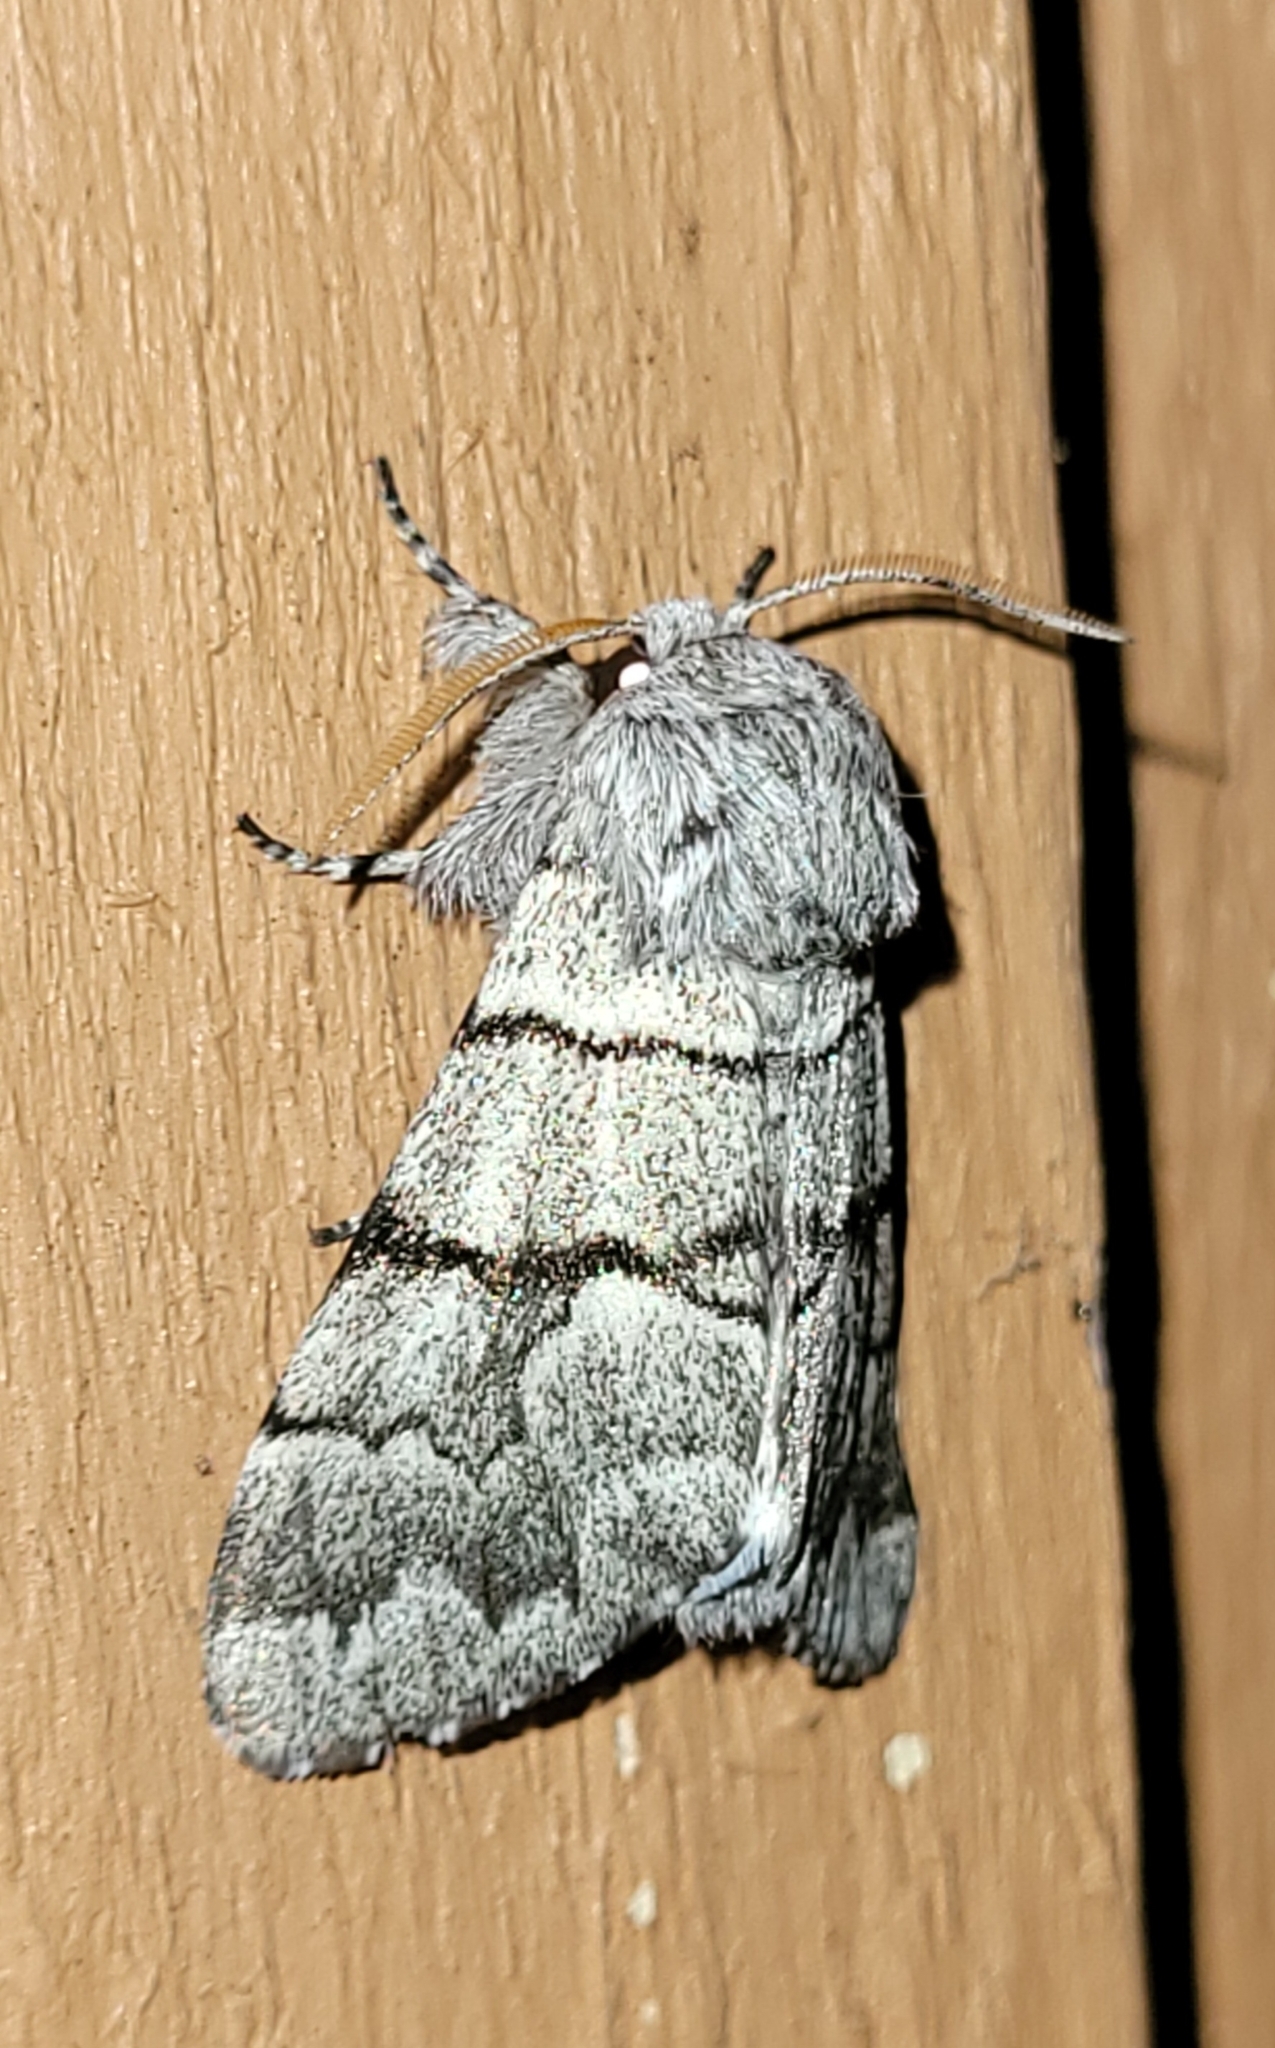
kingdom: Animalia
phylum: Arthropoda
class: Insecta
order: Lepidoptera
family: Noctuidae
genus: Panthea
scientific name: Panthea furcilla
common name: Eastern panthea moth
